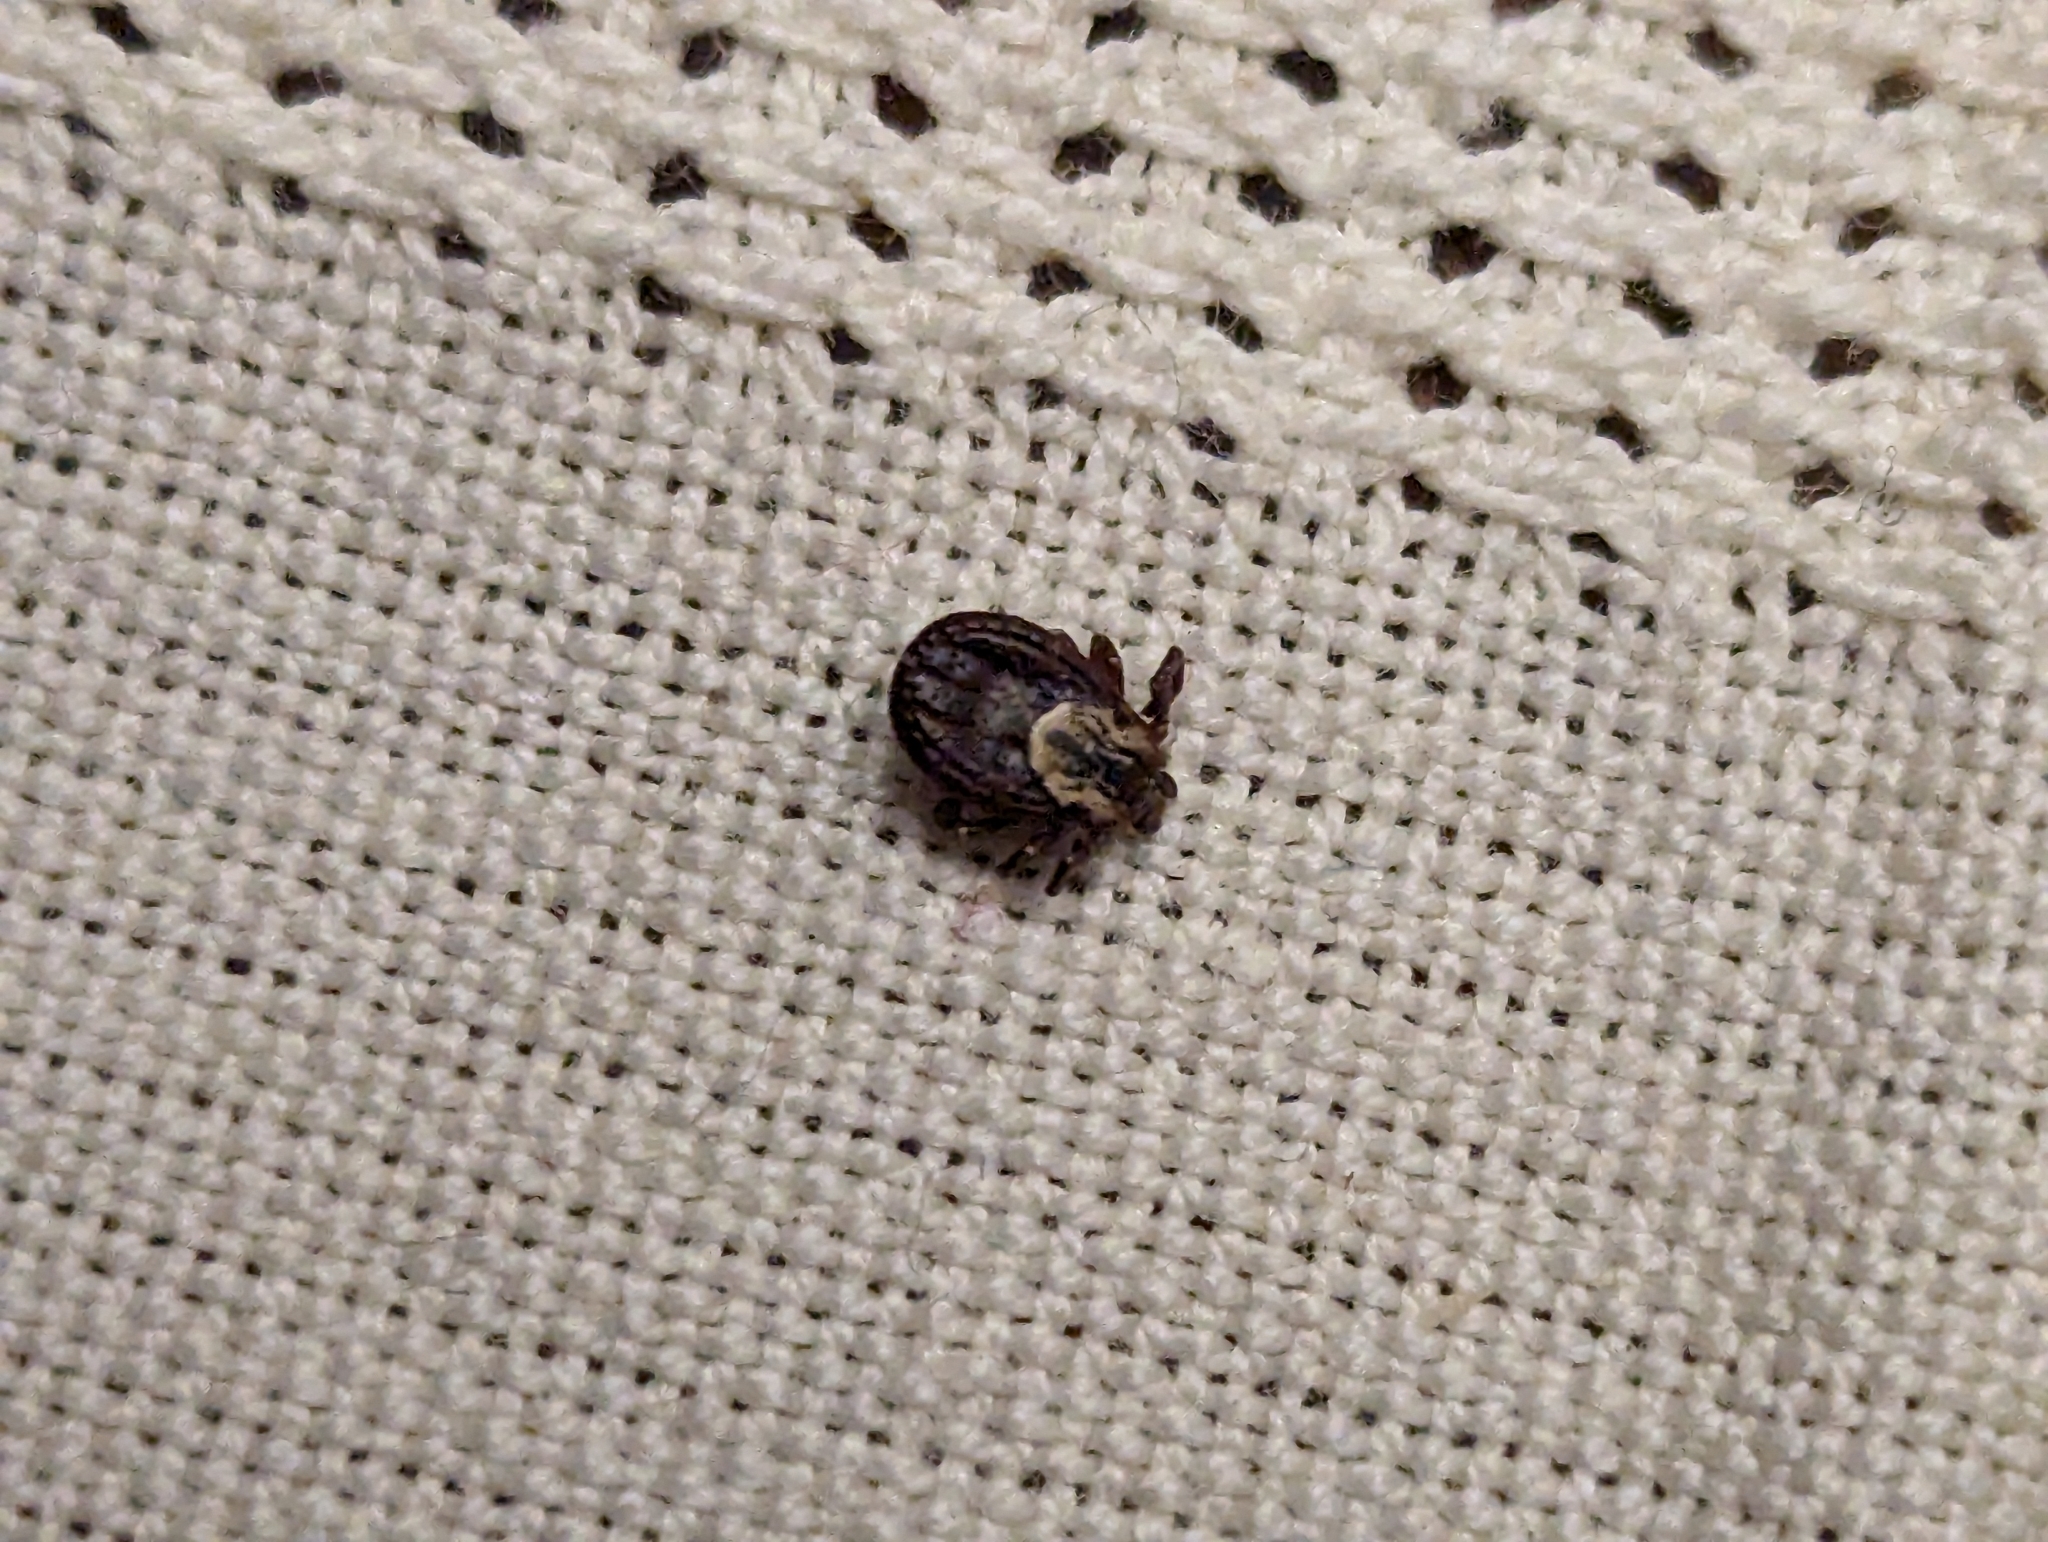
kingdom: Animalia
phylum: Arthropoda
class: Arachnida
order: Ixodida
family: Ixodidae
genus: Dermacentor
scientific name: Dermacentor variabilis
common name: American dog tick
